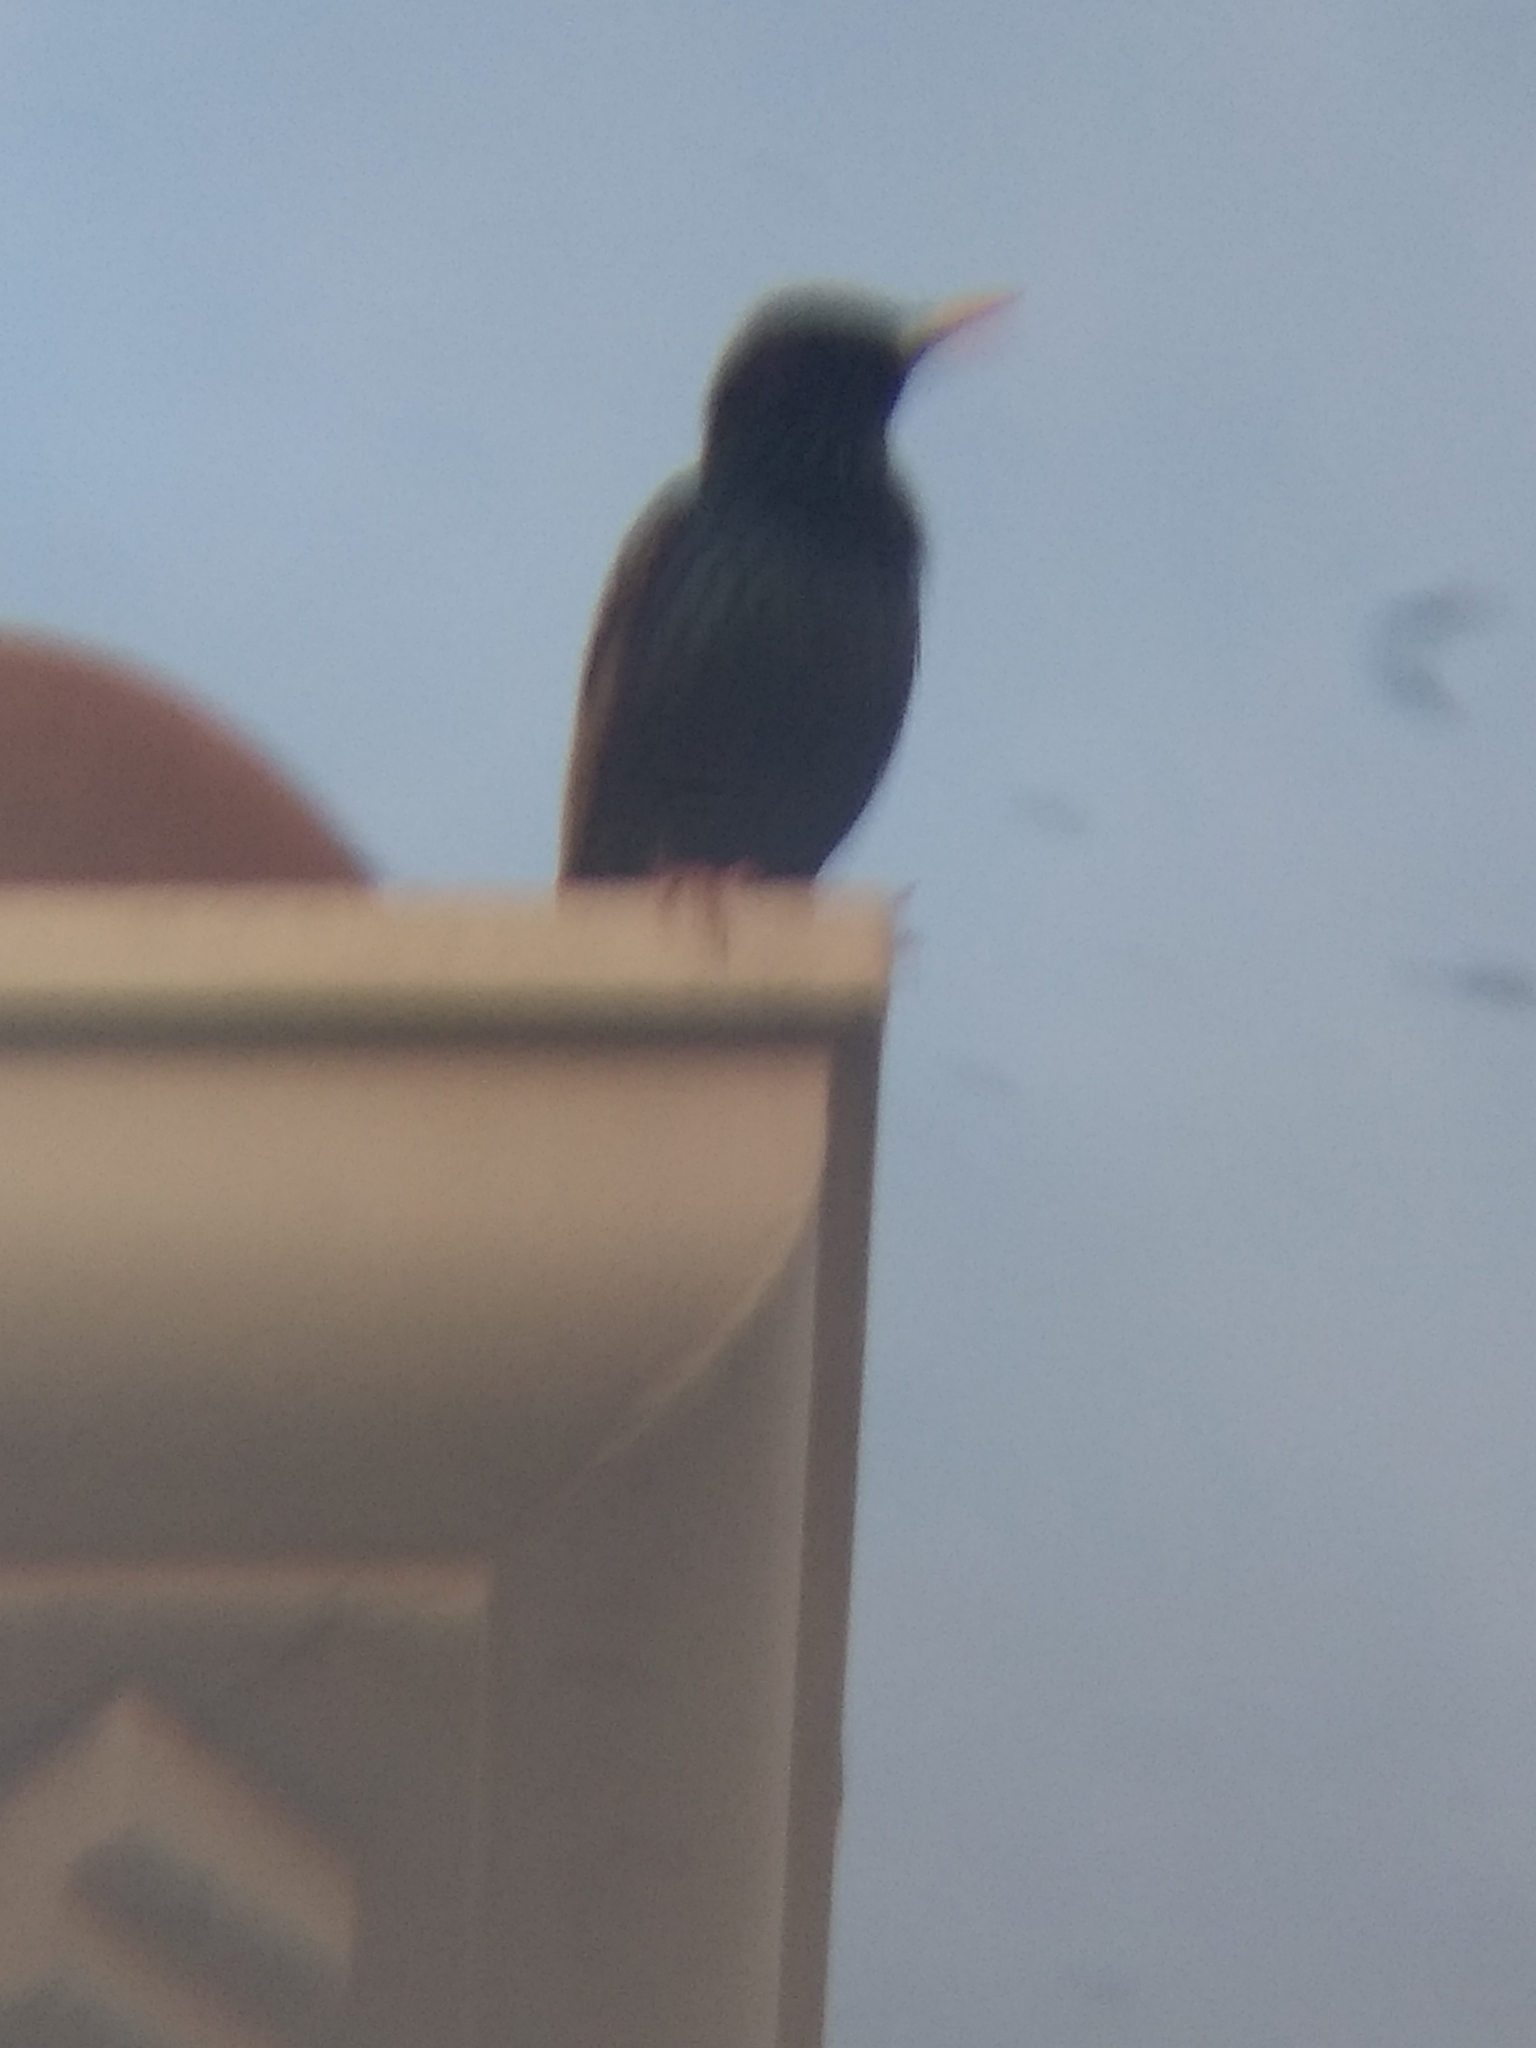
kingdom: Animalia
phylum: Chordata
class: Aves
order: Passeriformes
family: Sturnidae
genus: Sturnus
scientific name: Sturnus vulgaris
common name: Common starling
